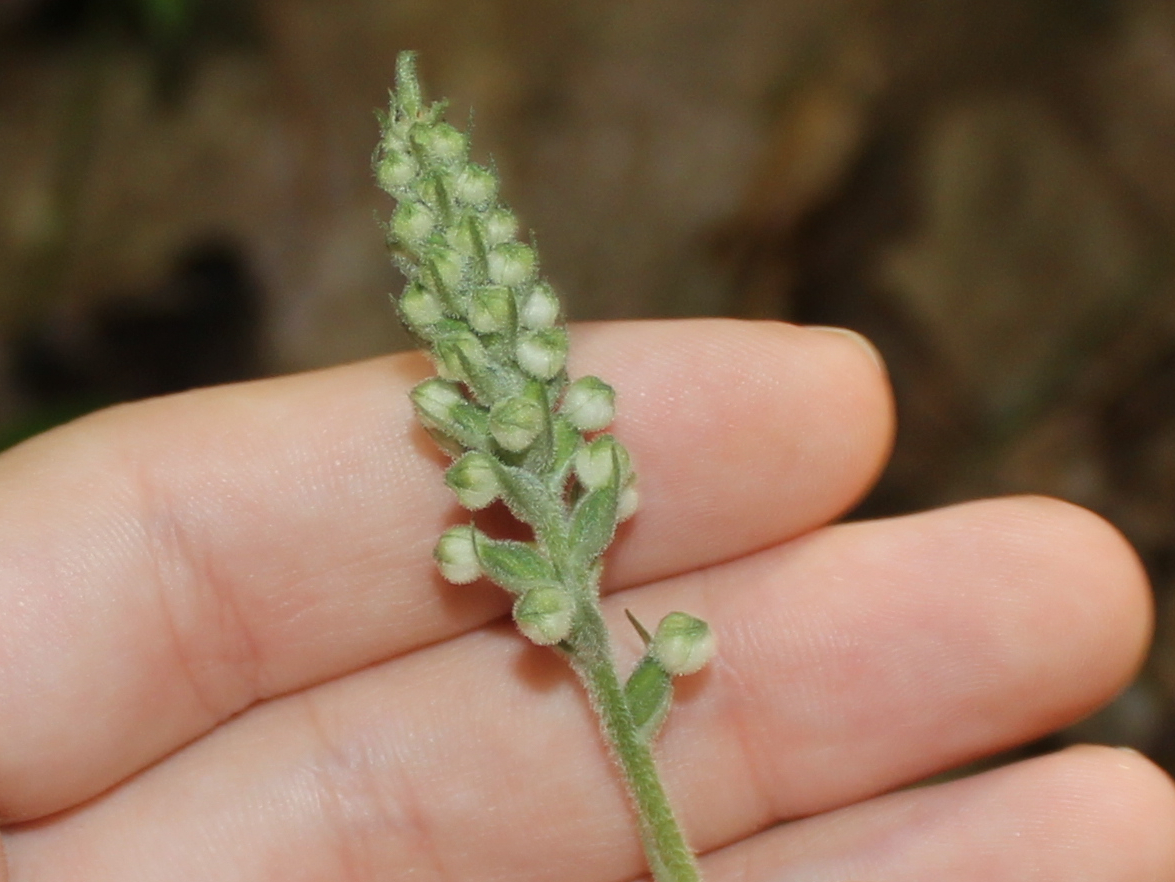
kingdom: Plantae
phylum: Tracheophyta
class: Liliopsida
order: Asparagales
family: Orchidaceae
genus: Goodyera
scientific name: Goodyera pubescens
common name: Downy rattlesnake-plantain
